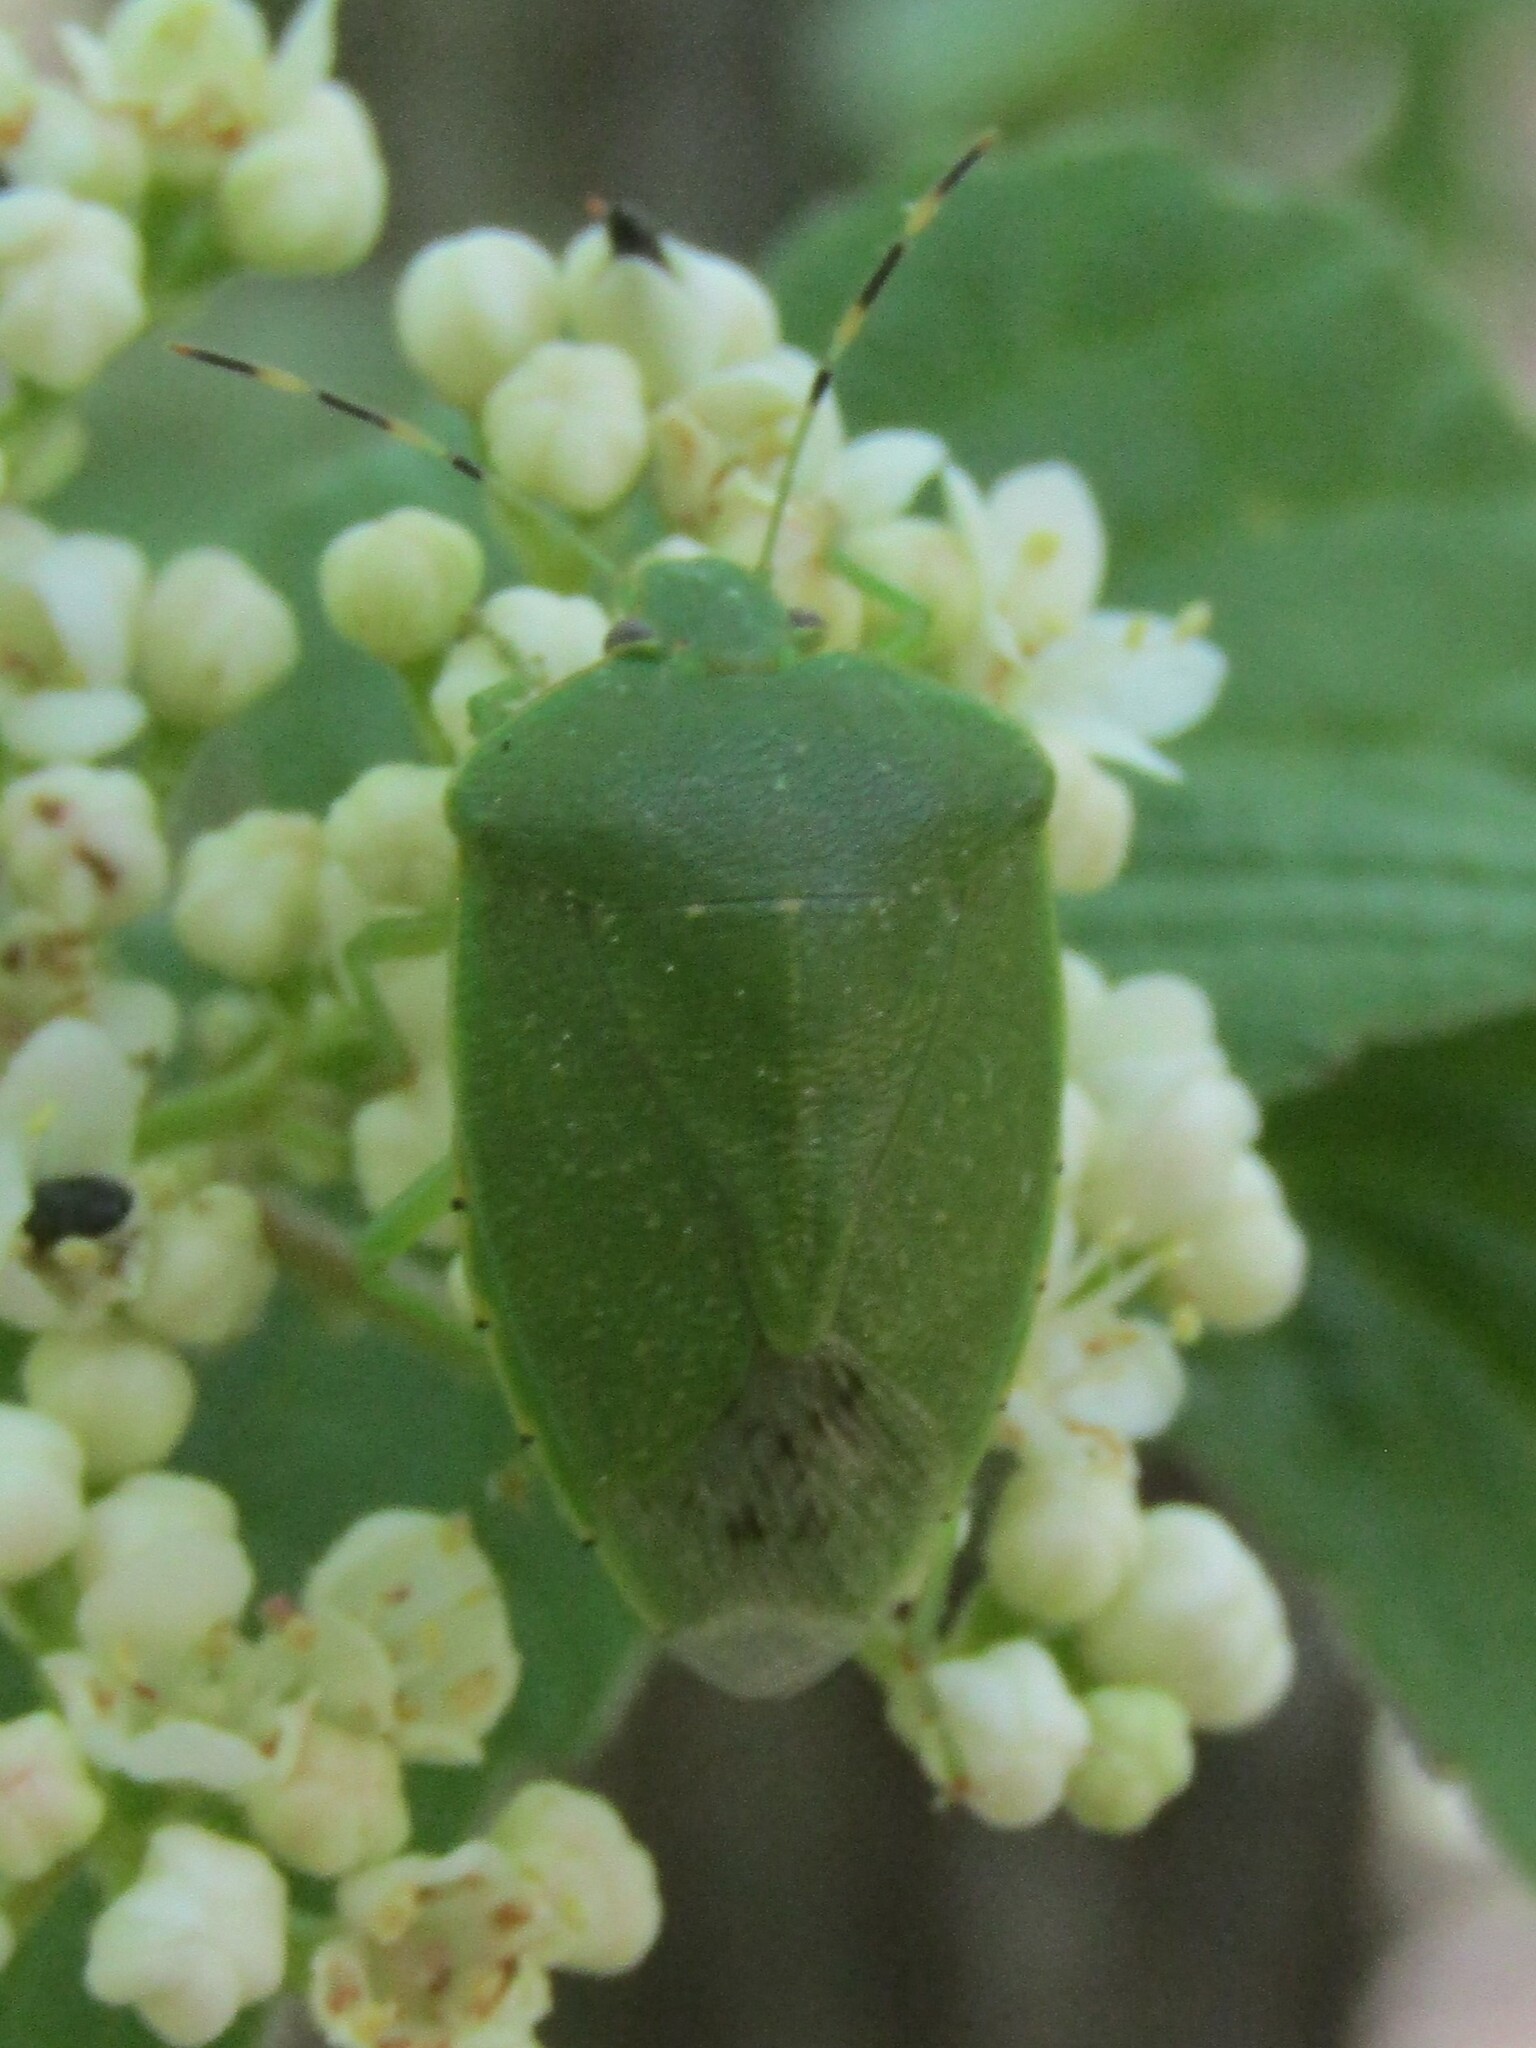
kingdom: Animalia
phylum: Arthropoda
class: Insecta
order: Hemiptera
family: Pentatomidae
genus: Chinavia
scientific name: Chinavia hilaris
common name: Green stink bug
